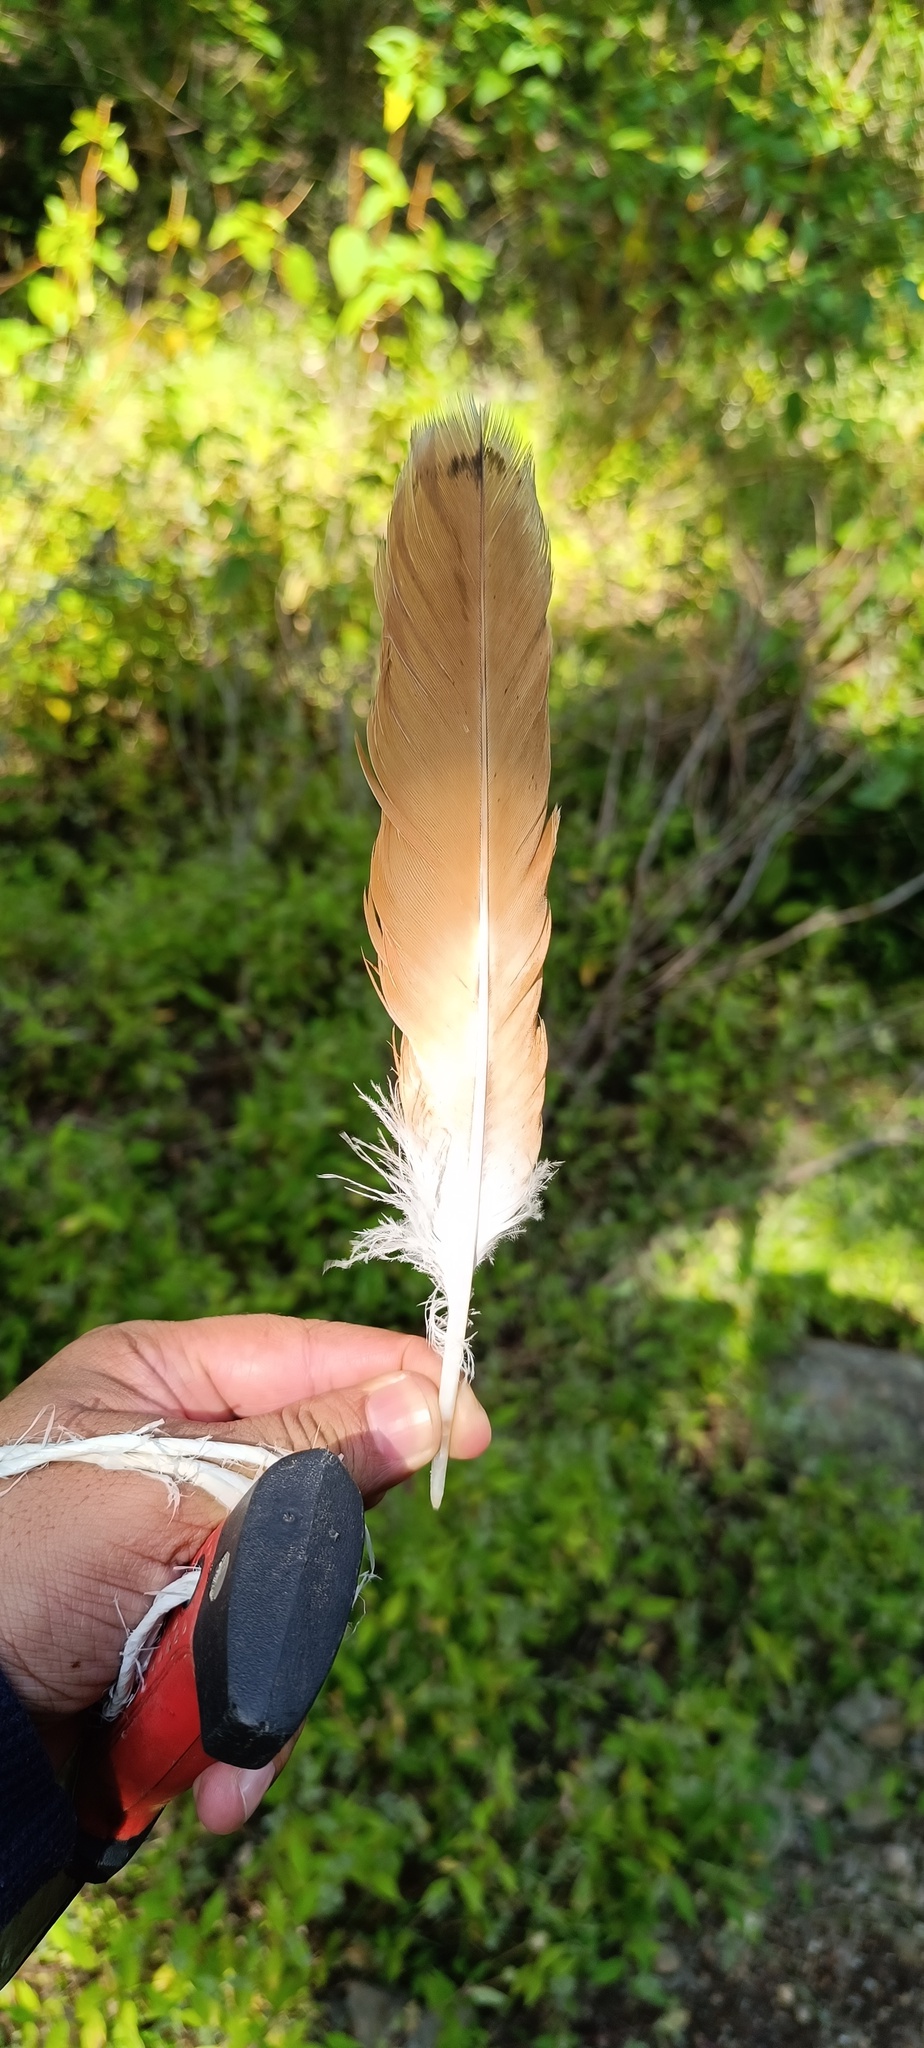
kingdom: Animalia
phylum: Chordata
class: Aves
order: Accipitriformes
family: Accipitridae
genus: Buteo
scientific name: Buteo jamaicensis
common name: Red-tailed hawk
